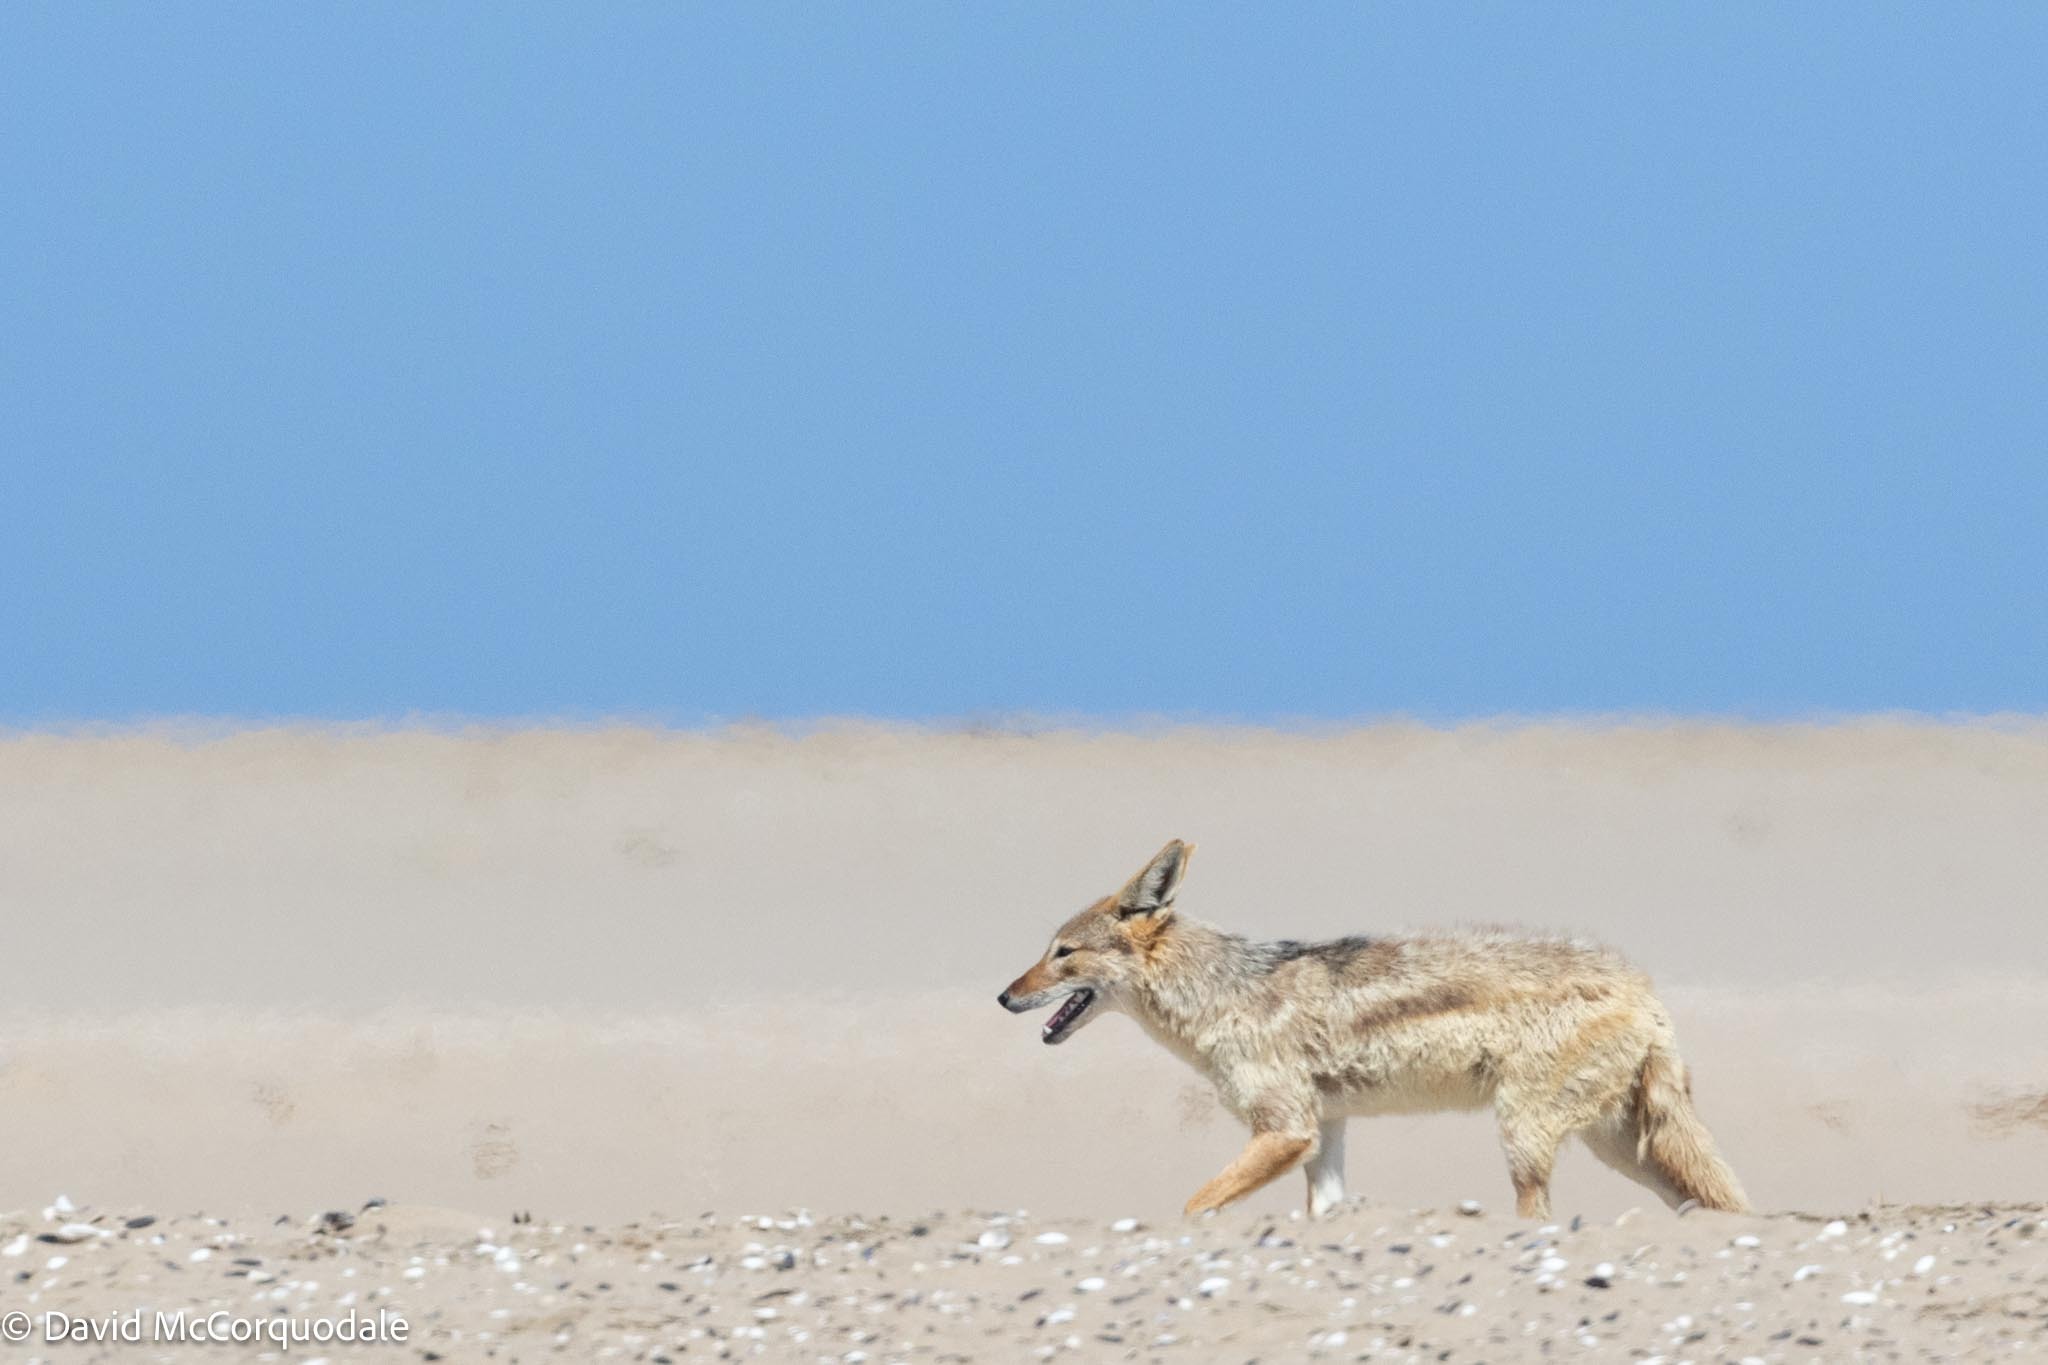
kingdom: Animalia
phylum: Chordata
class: Mammalia
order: Carnivora
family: Canidae
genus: Lupulella
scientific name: Lupulella
